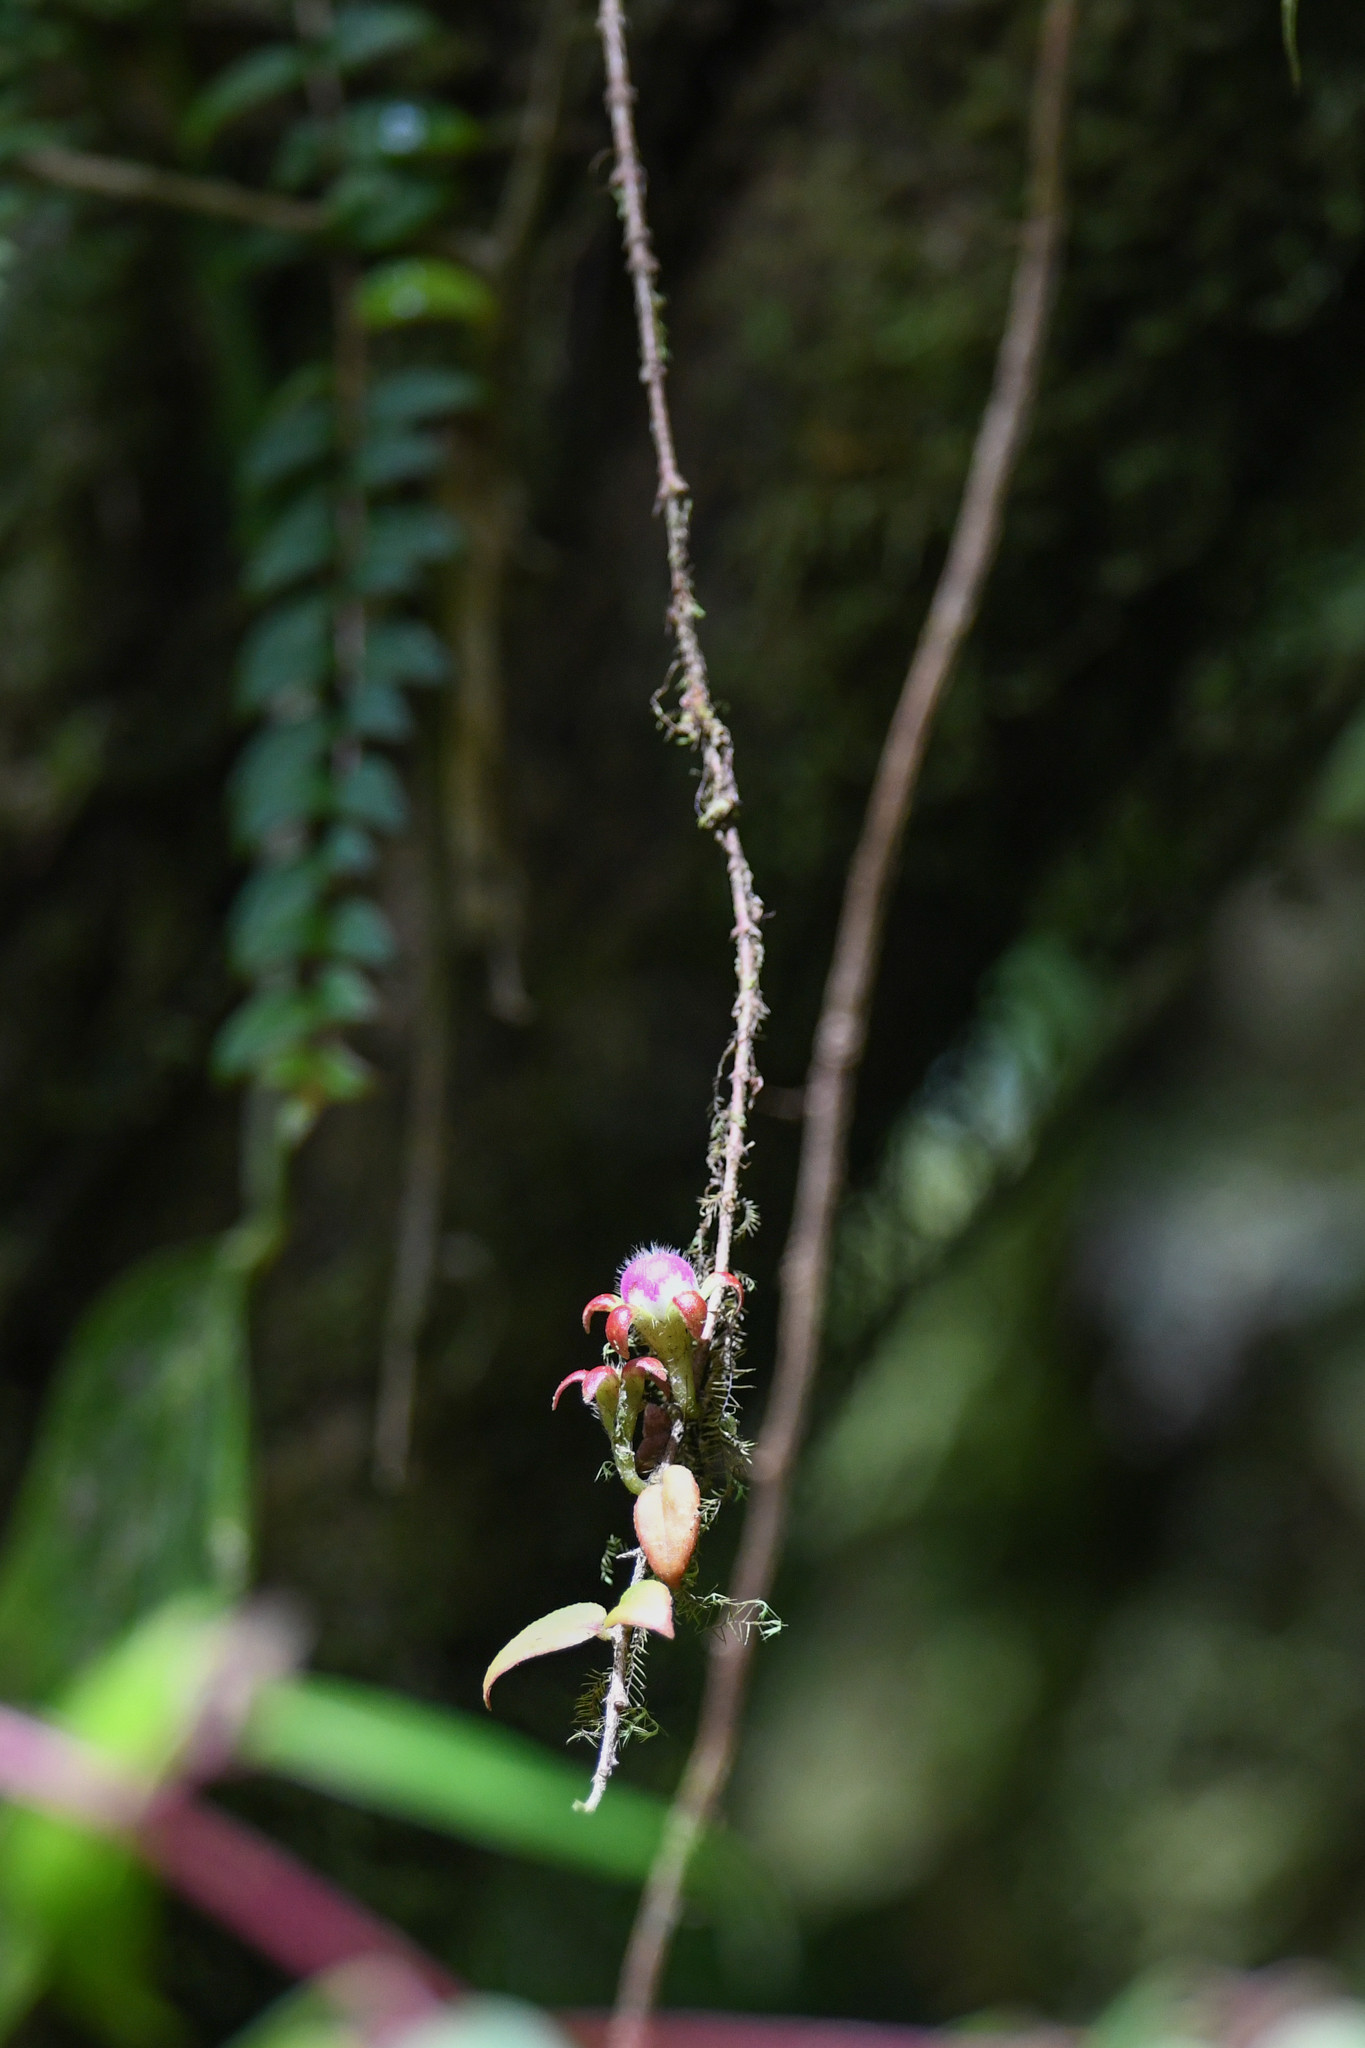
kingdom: Plantae
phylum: Tracheophyta
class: Magnoliopsida
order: Lamiales
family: Gesneriaceae
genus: Columnea
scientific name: Columnea microcalyx
